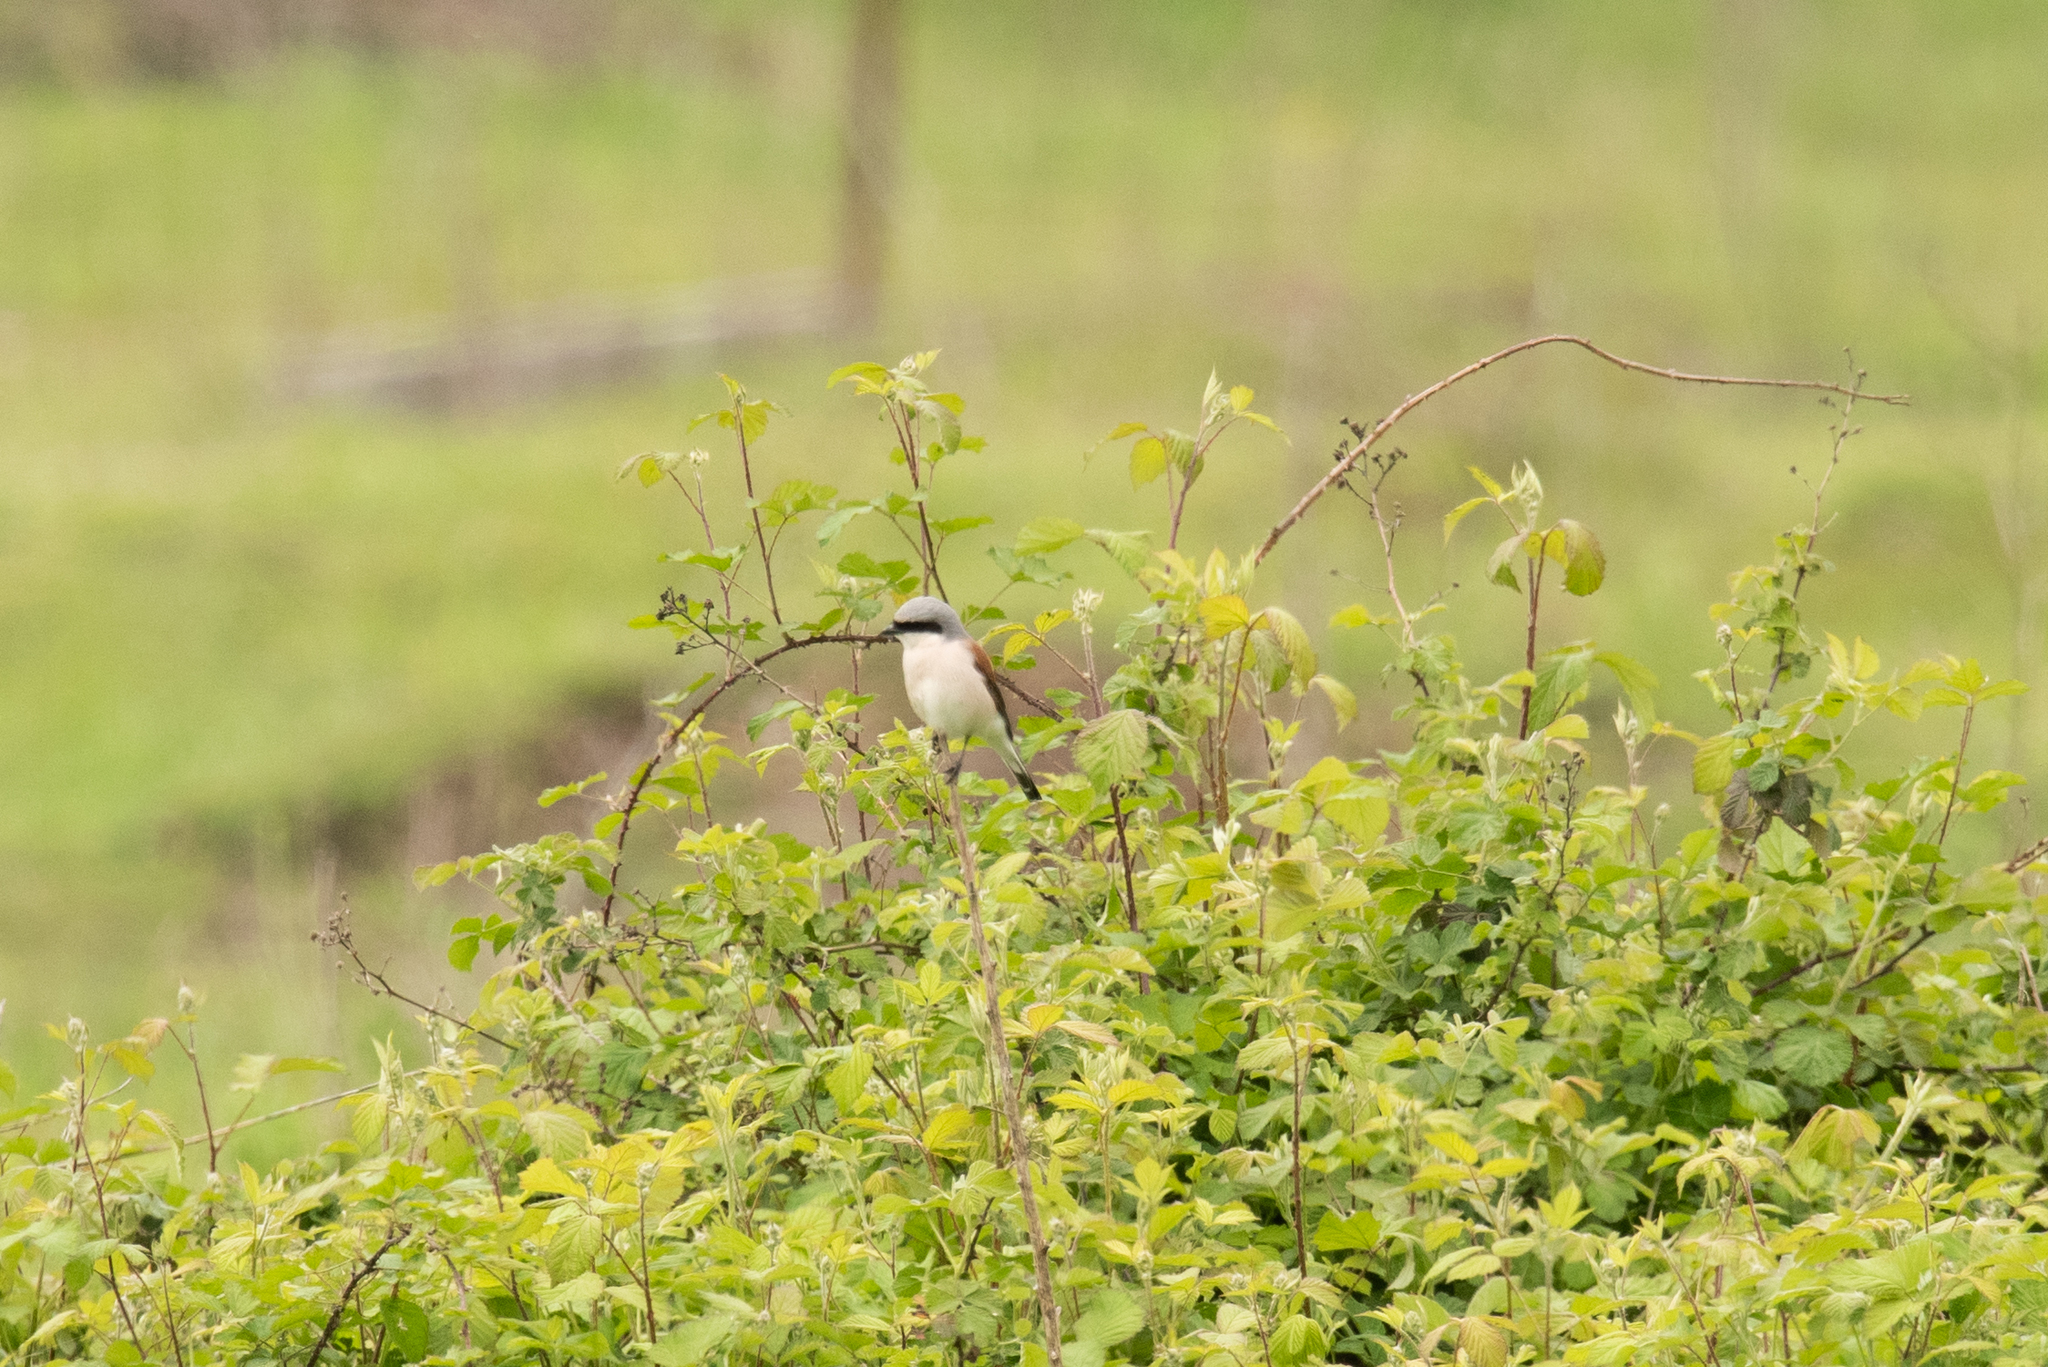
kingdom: Animalia
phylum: Chordata
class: Aves
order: Passeriformes
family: Laniidae
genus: Lanius
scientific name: Lanius collurio
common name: Red-backed shrike
